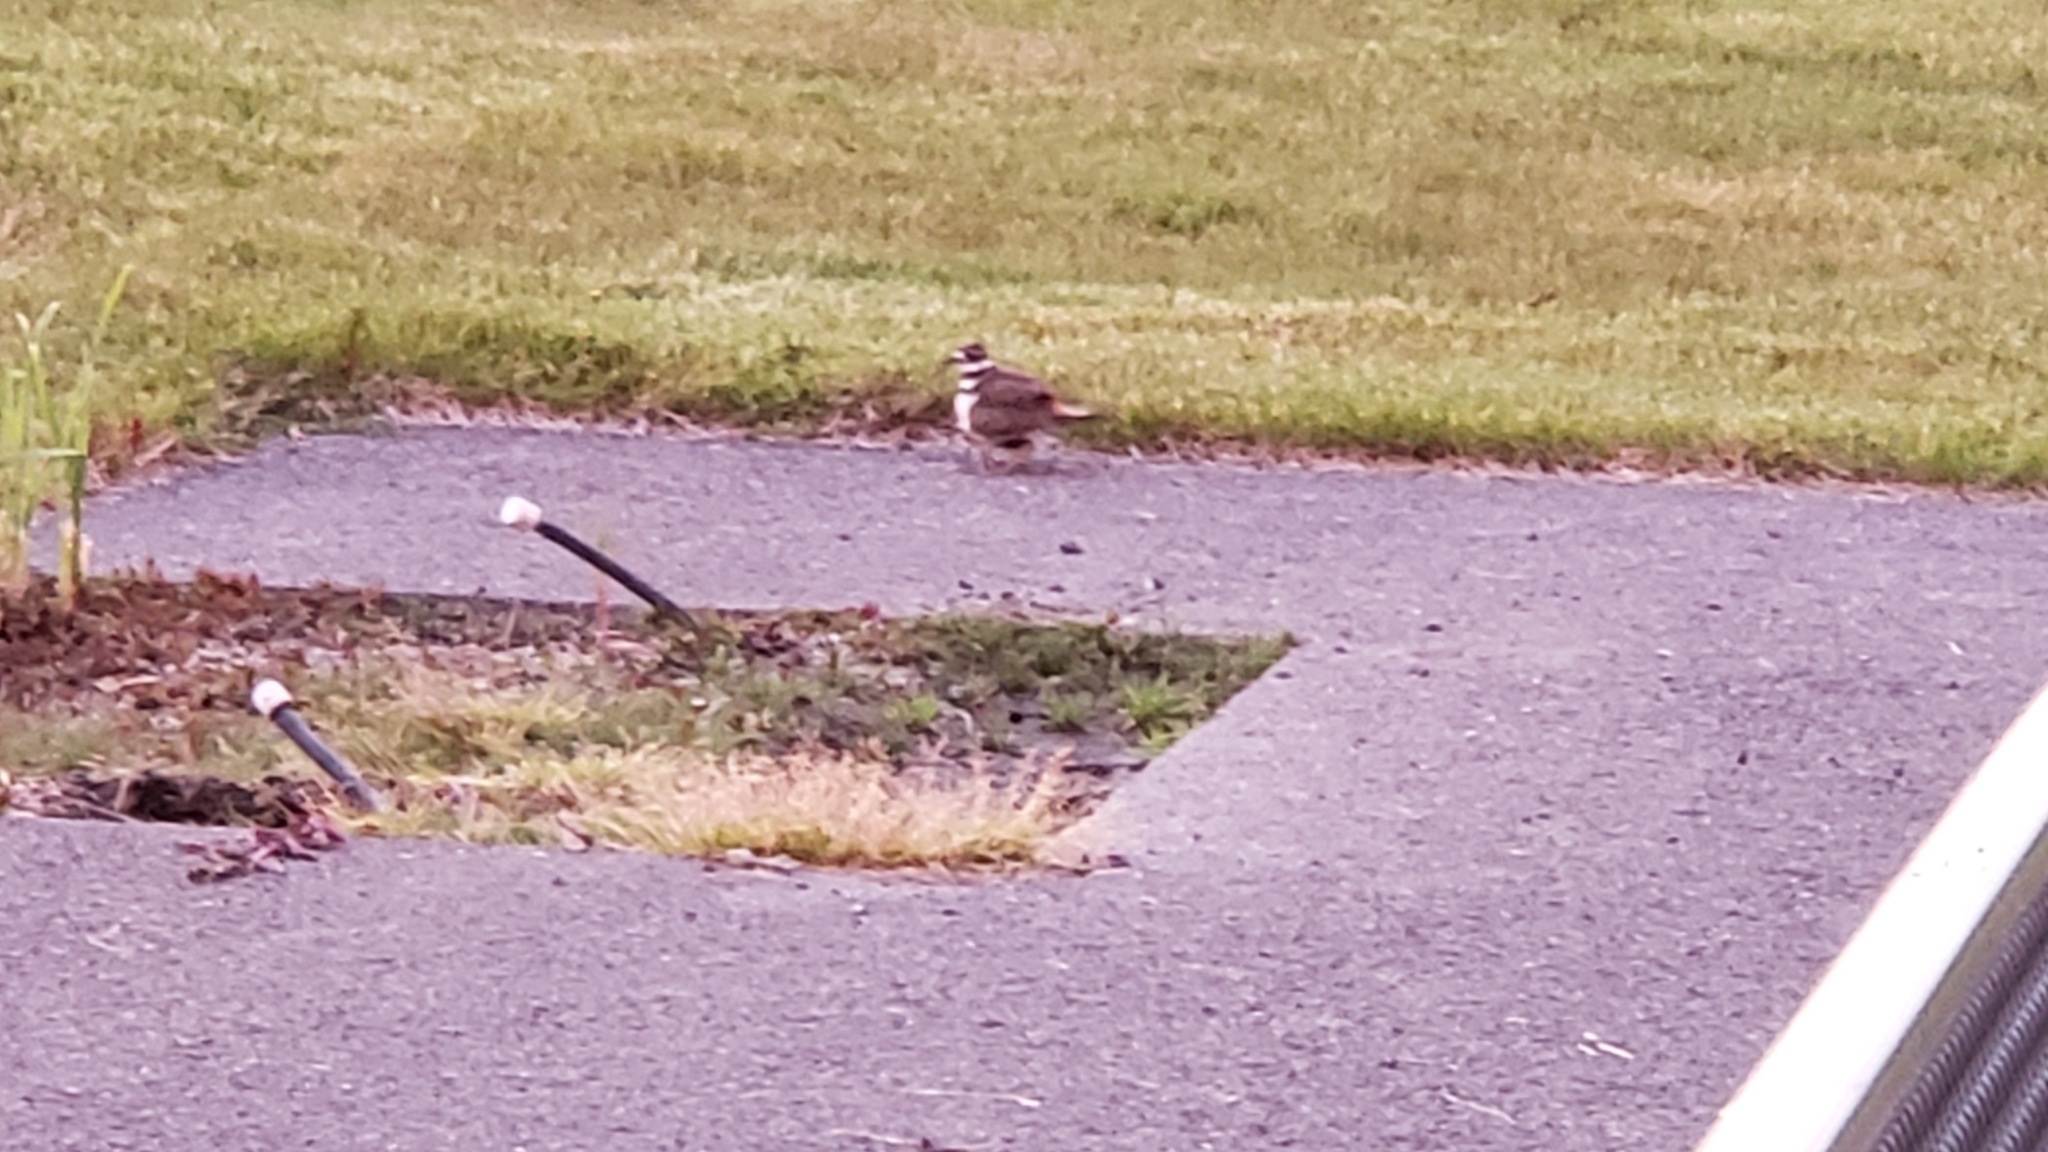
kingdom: Animalia
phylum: Chordata
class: Aves
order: Charadriiformes
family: Charadriidae
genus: Charadrius
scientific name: Charadrius vociferus
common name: Killdeer
